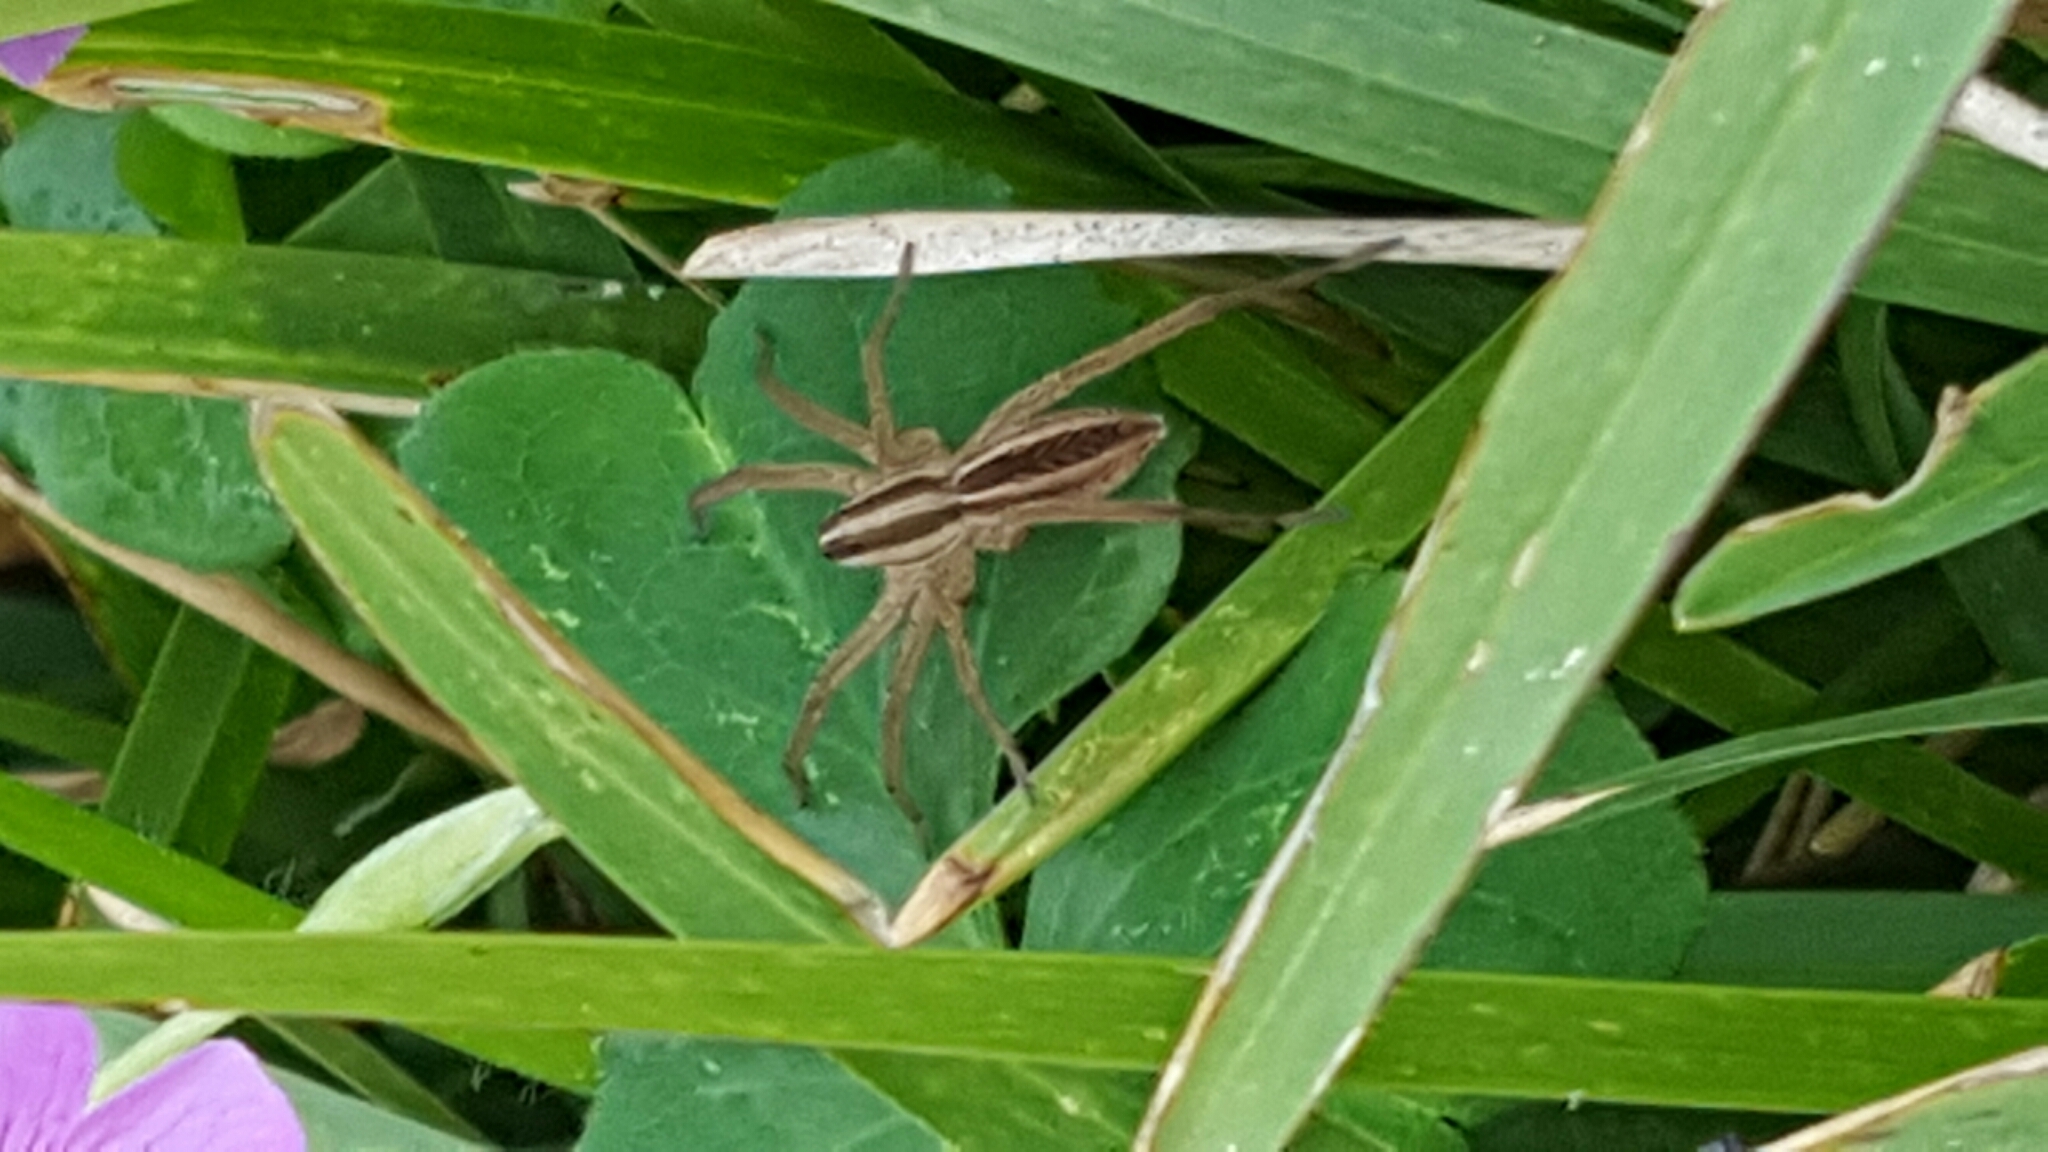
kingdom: Animalia
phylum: Arthropoda
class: Arachnida
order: Araneae
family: Lycosidae
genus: Rabidosa
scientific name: Rabidosa rabida
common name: Rabid wolf spider
